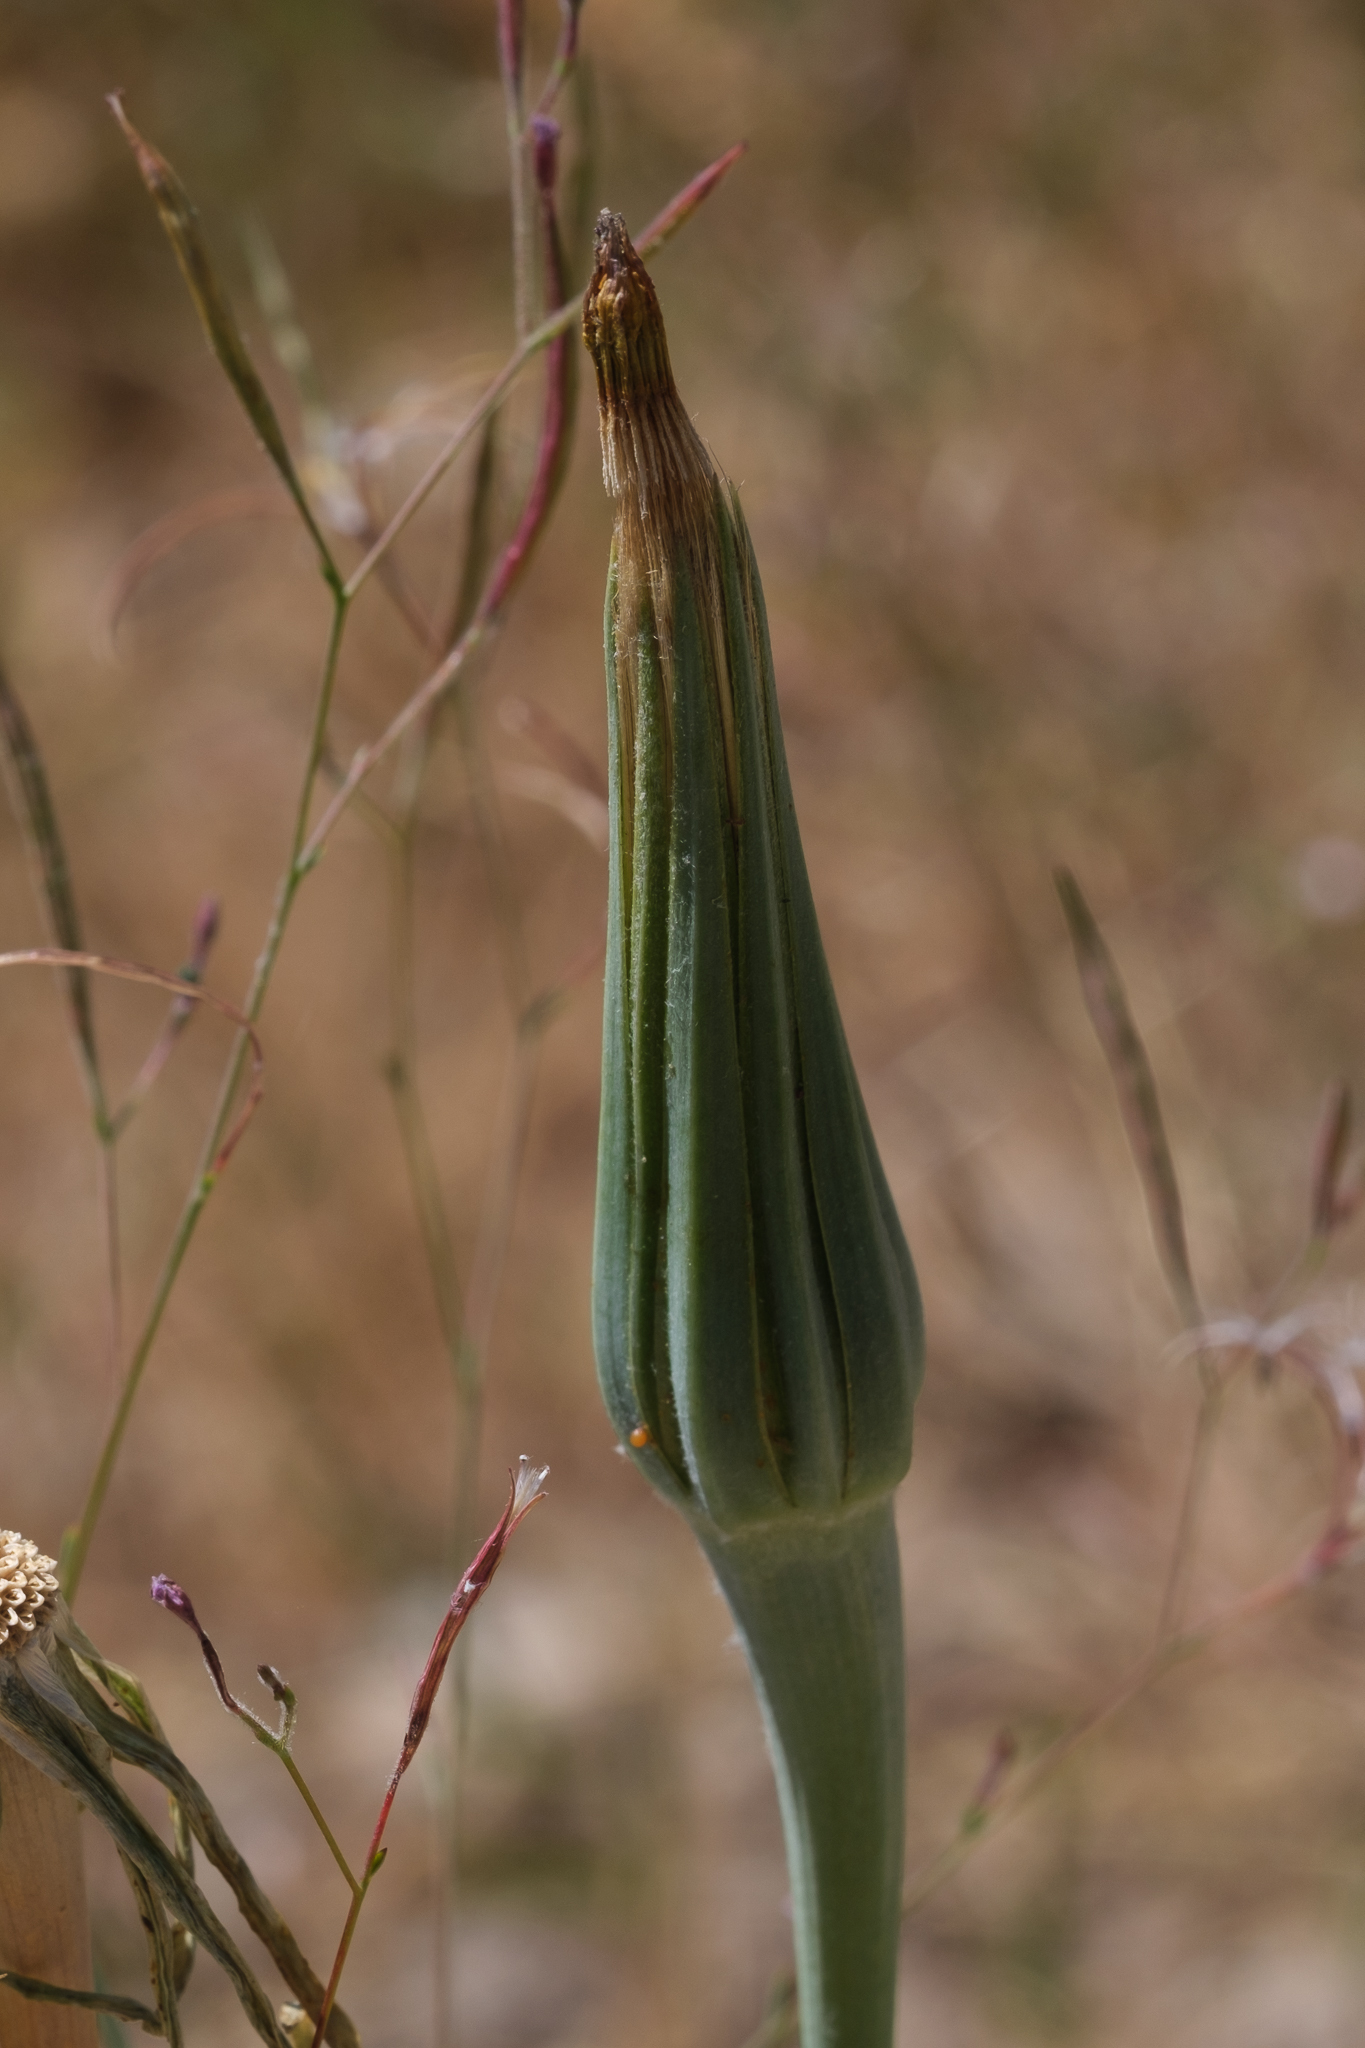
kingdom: Plantae
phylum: Tracheophyta
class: Magnoliopsida
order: Asterales
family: Asteraceae
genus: Tragopogon
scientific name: Tragopogon dubius
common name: Yellow salsify
